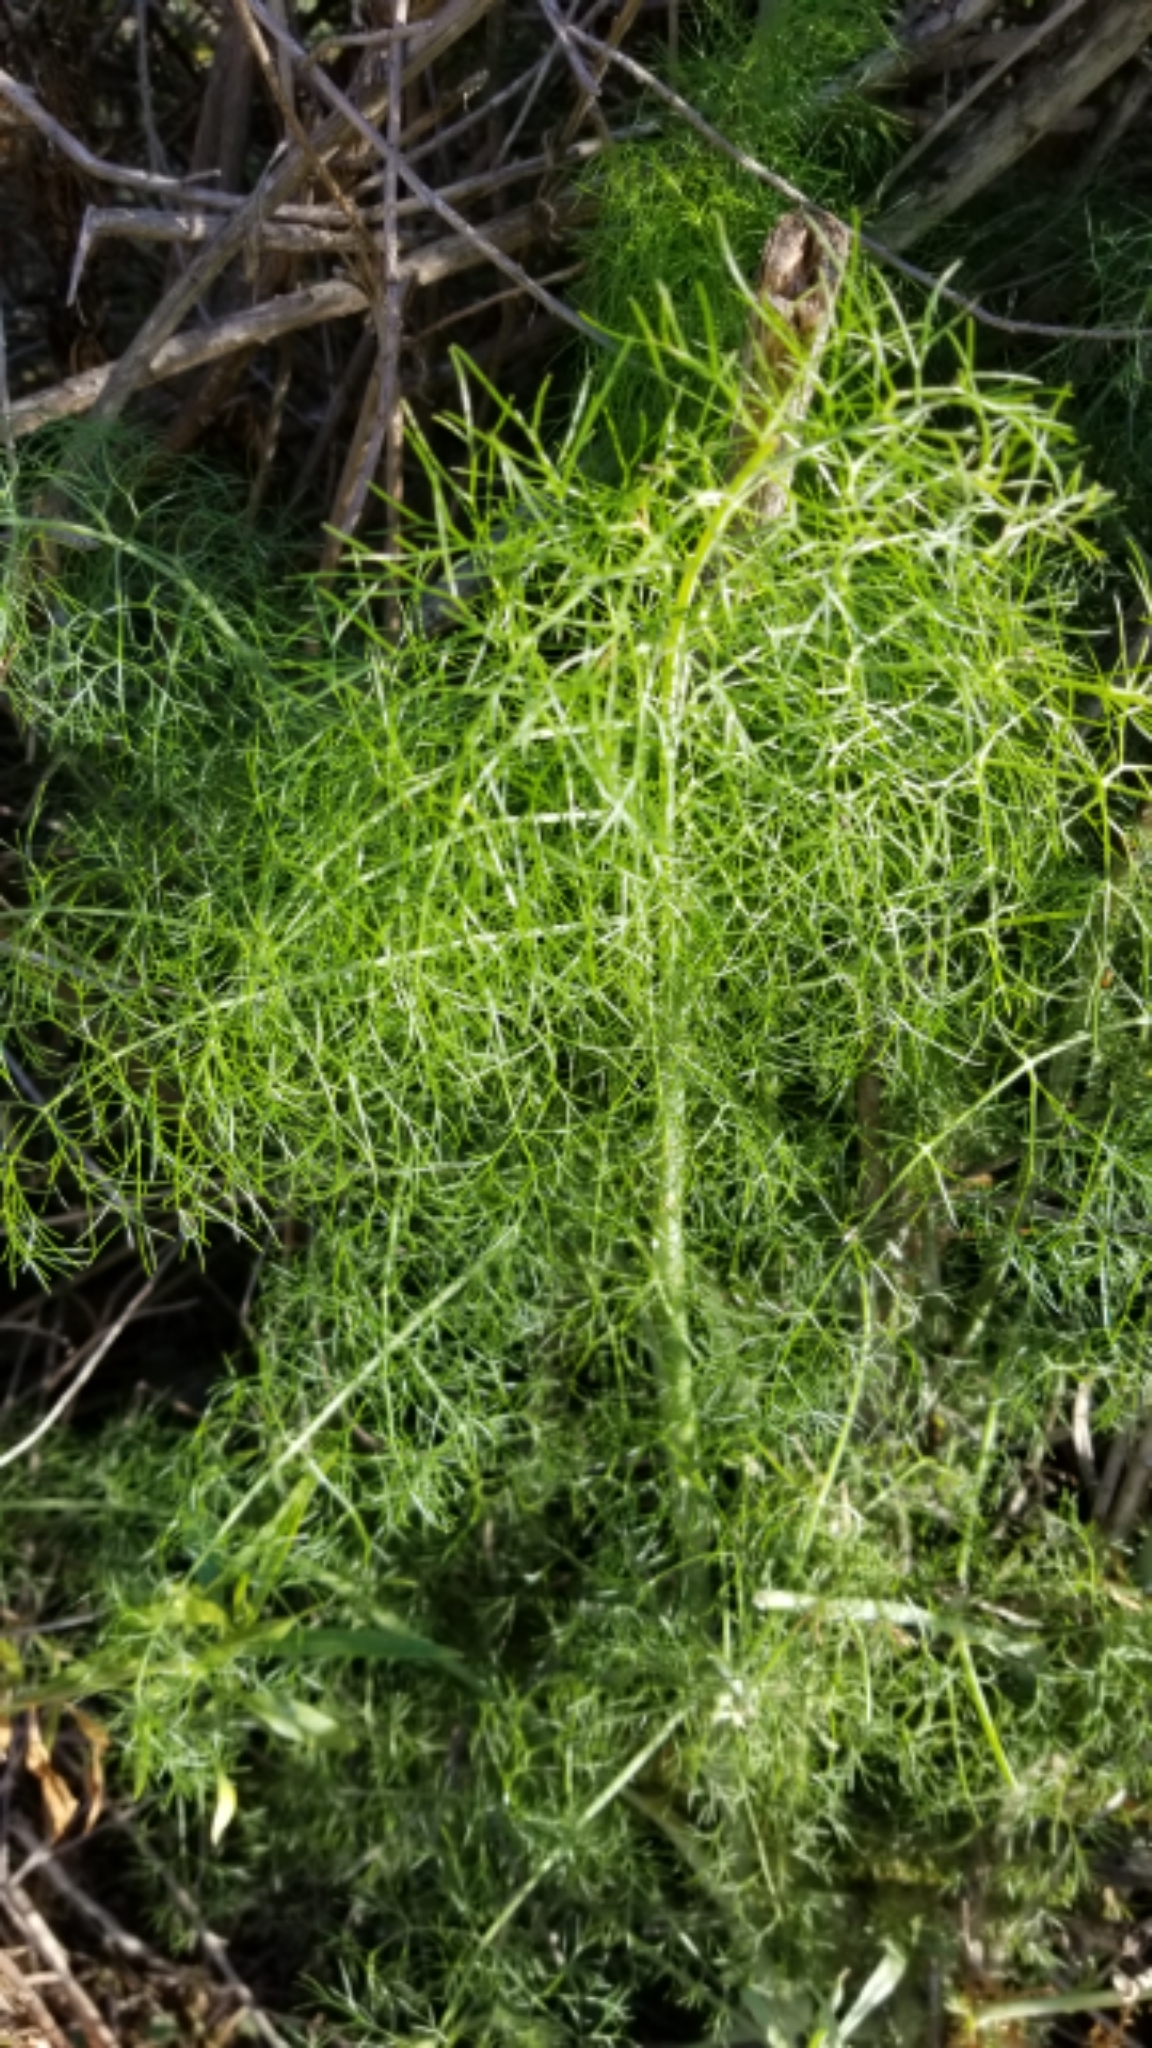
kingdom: Plantae
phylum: Tracheophyta
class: Magnoliopsida
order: Apiales
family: Apiaceae
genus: Foeniculum
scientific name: Foeniculum vulgare
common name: Fennel
